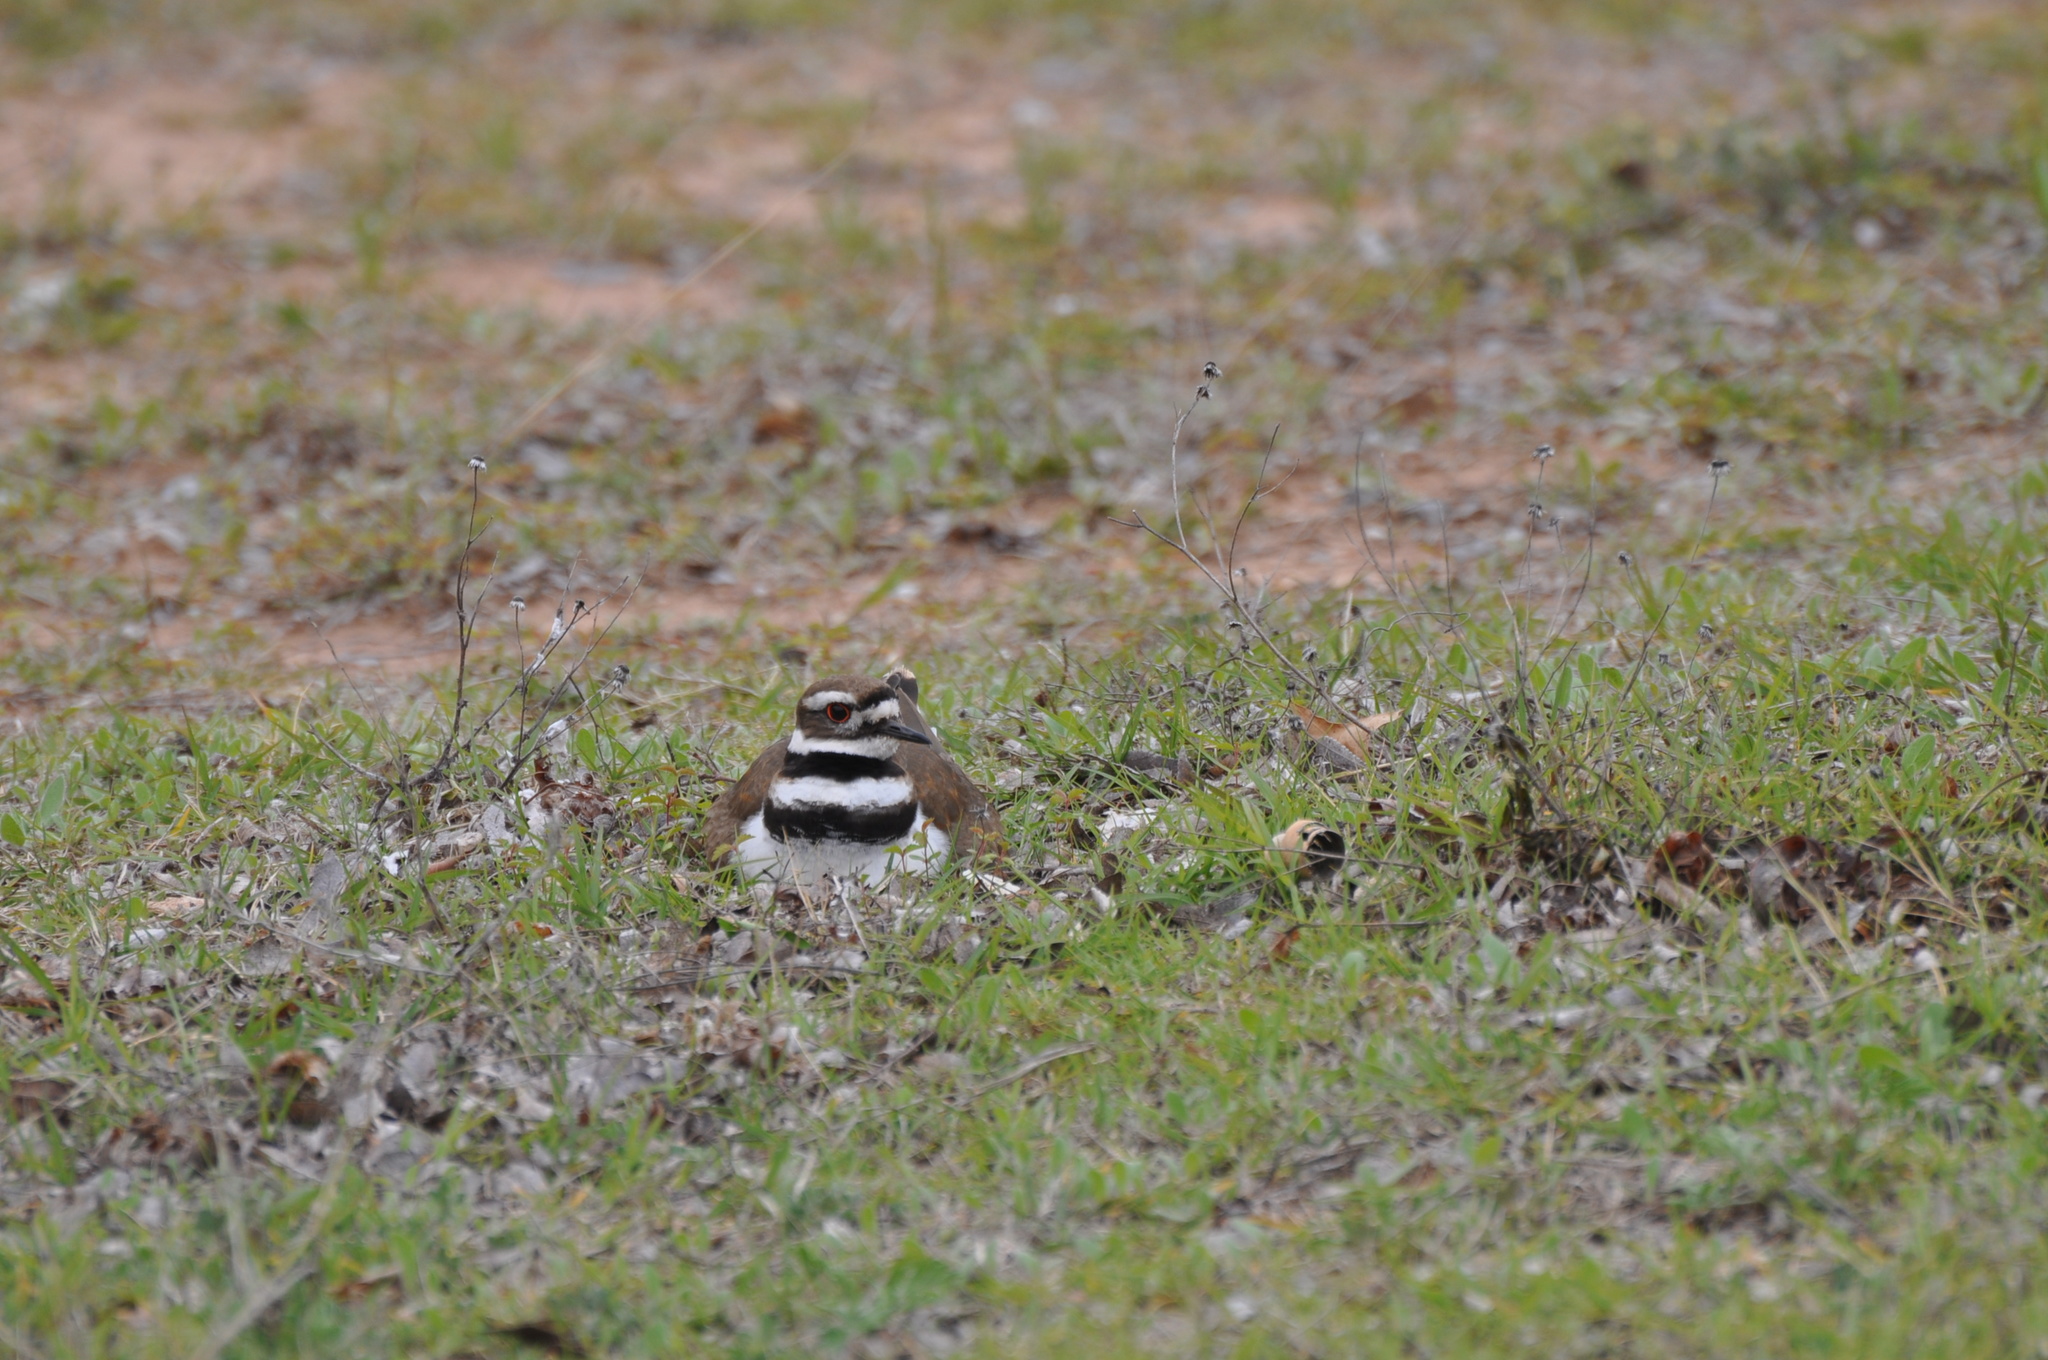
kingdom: Animalia
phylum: Chordata
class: Aves
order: Charadriiformes
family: Charadriidae
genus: Charadrius
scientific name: Charadrius vociferus
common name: Killdeer
